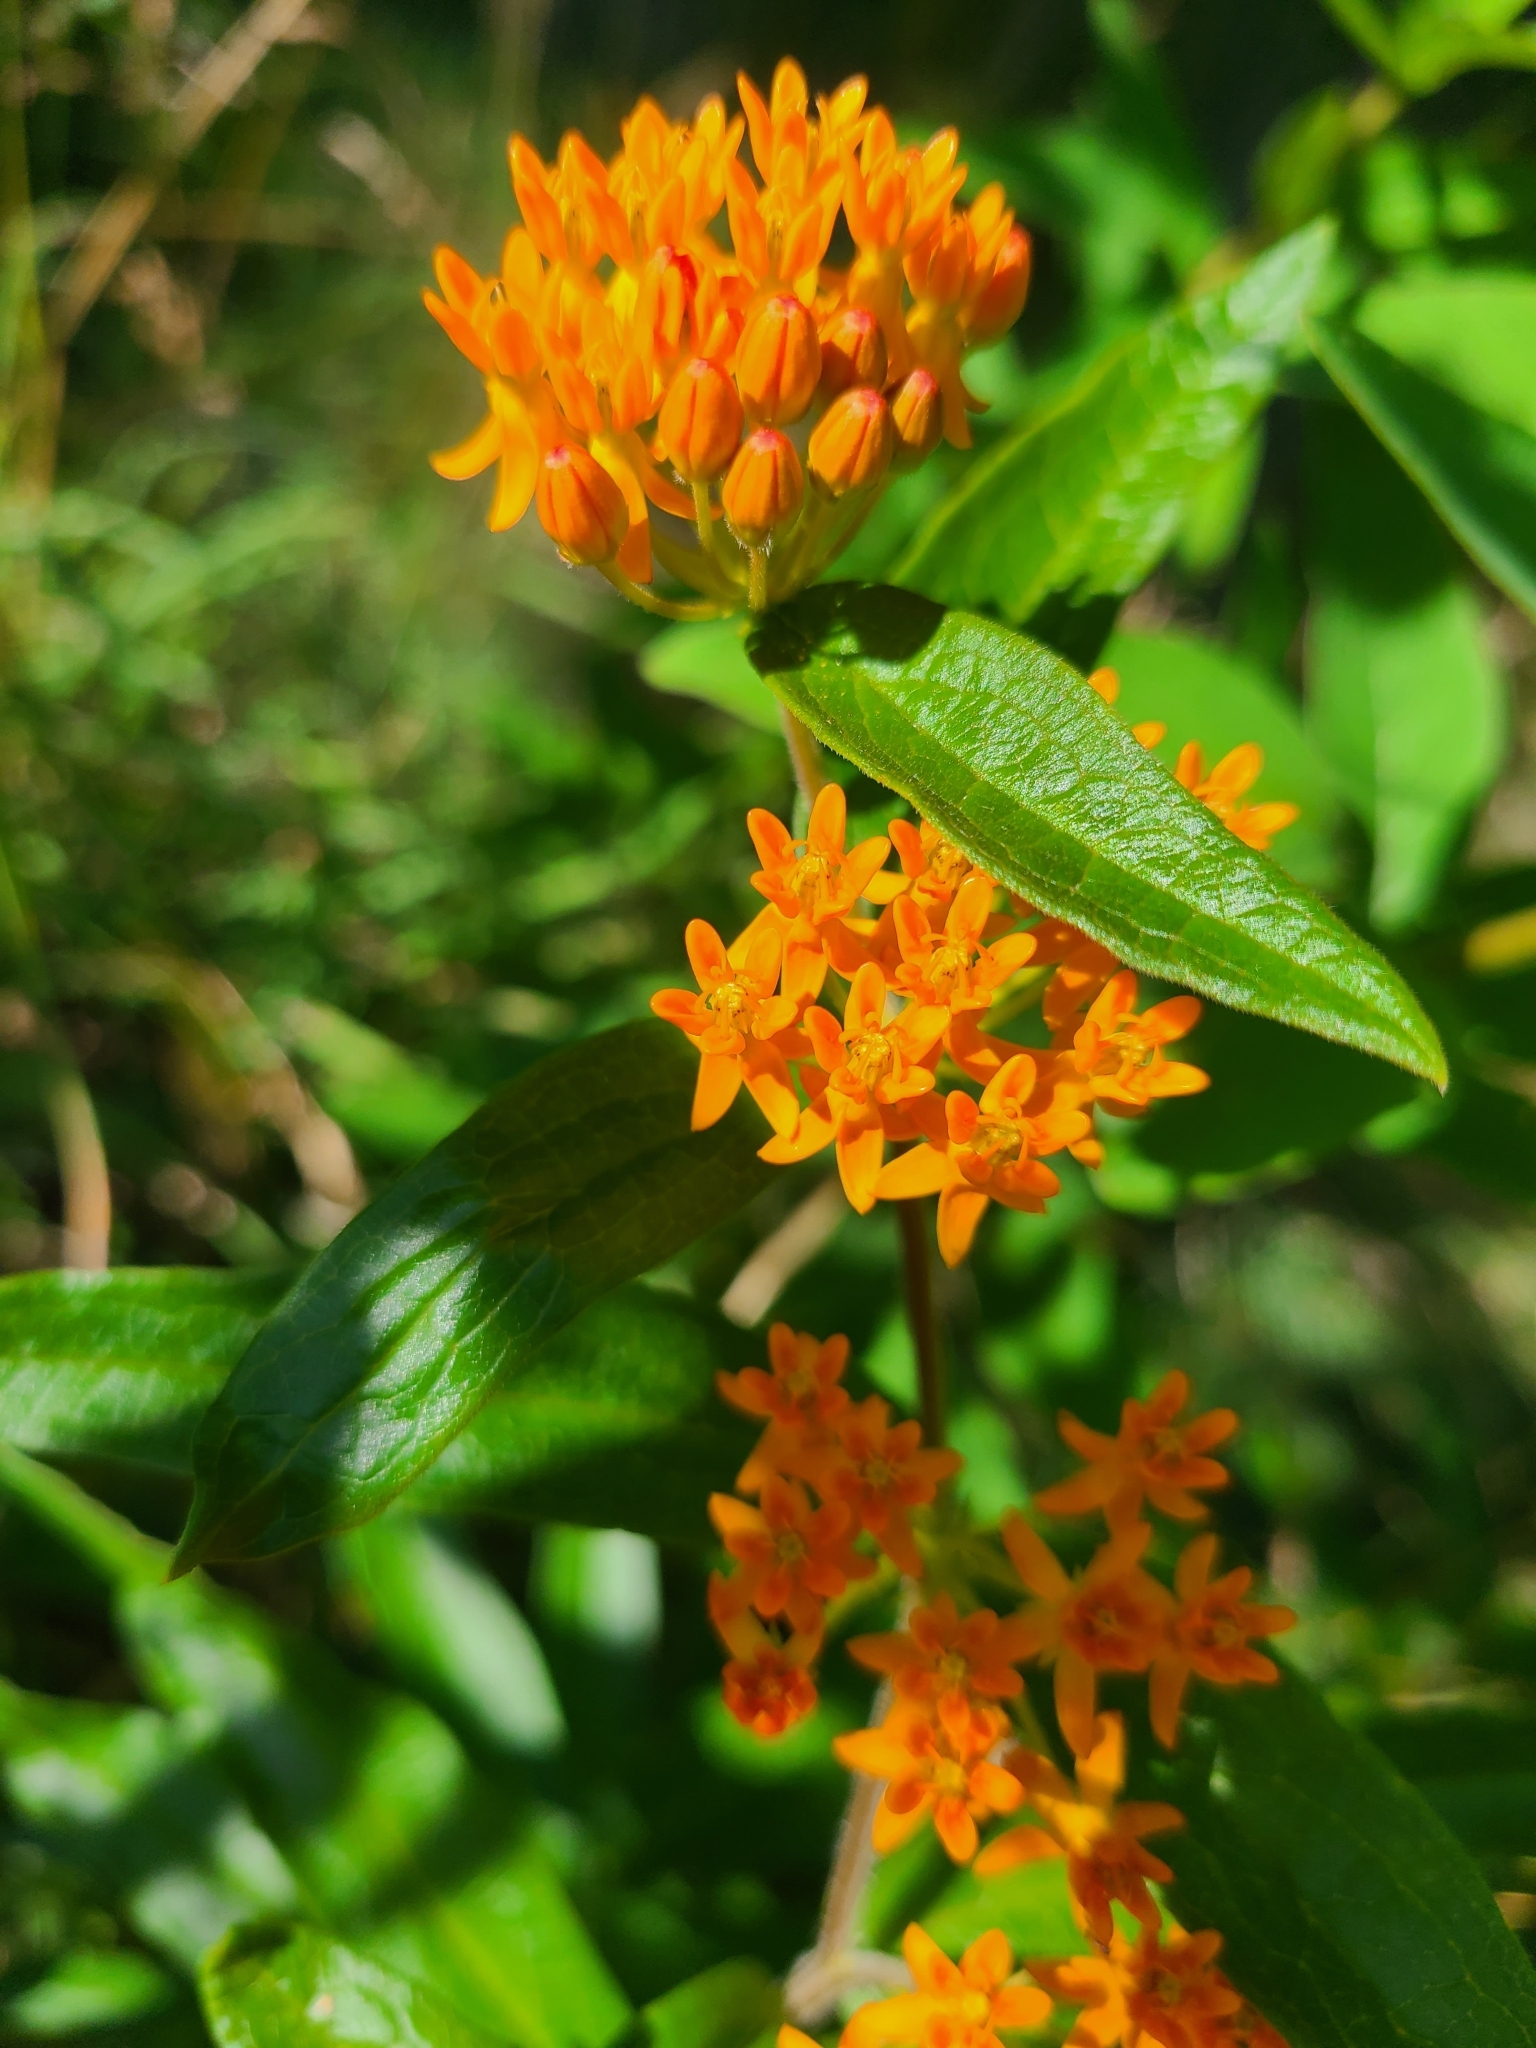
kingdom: Plantae
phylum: Tracheophyta
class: Magnoliopsida
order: Gentianales
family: Apocynaceae
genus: Asclepias
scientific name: Asclepias tuberosa
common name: Butterfly milkweed
